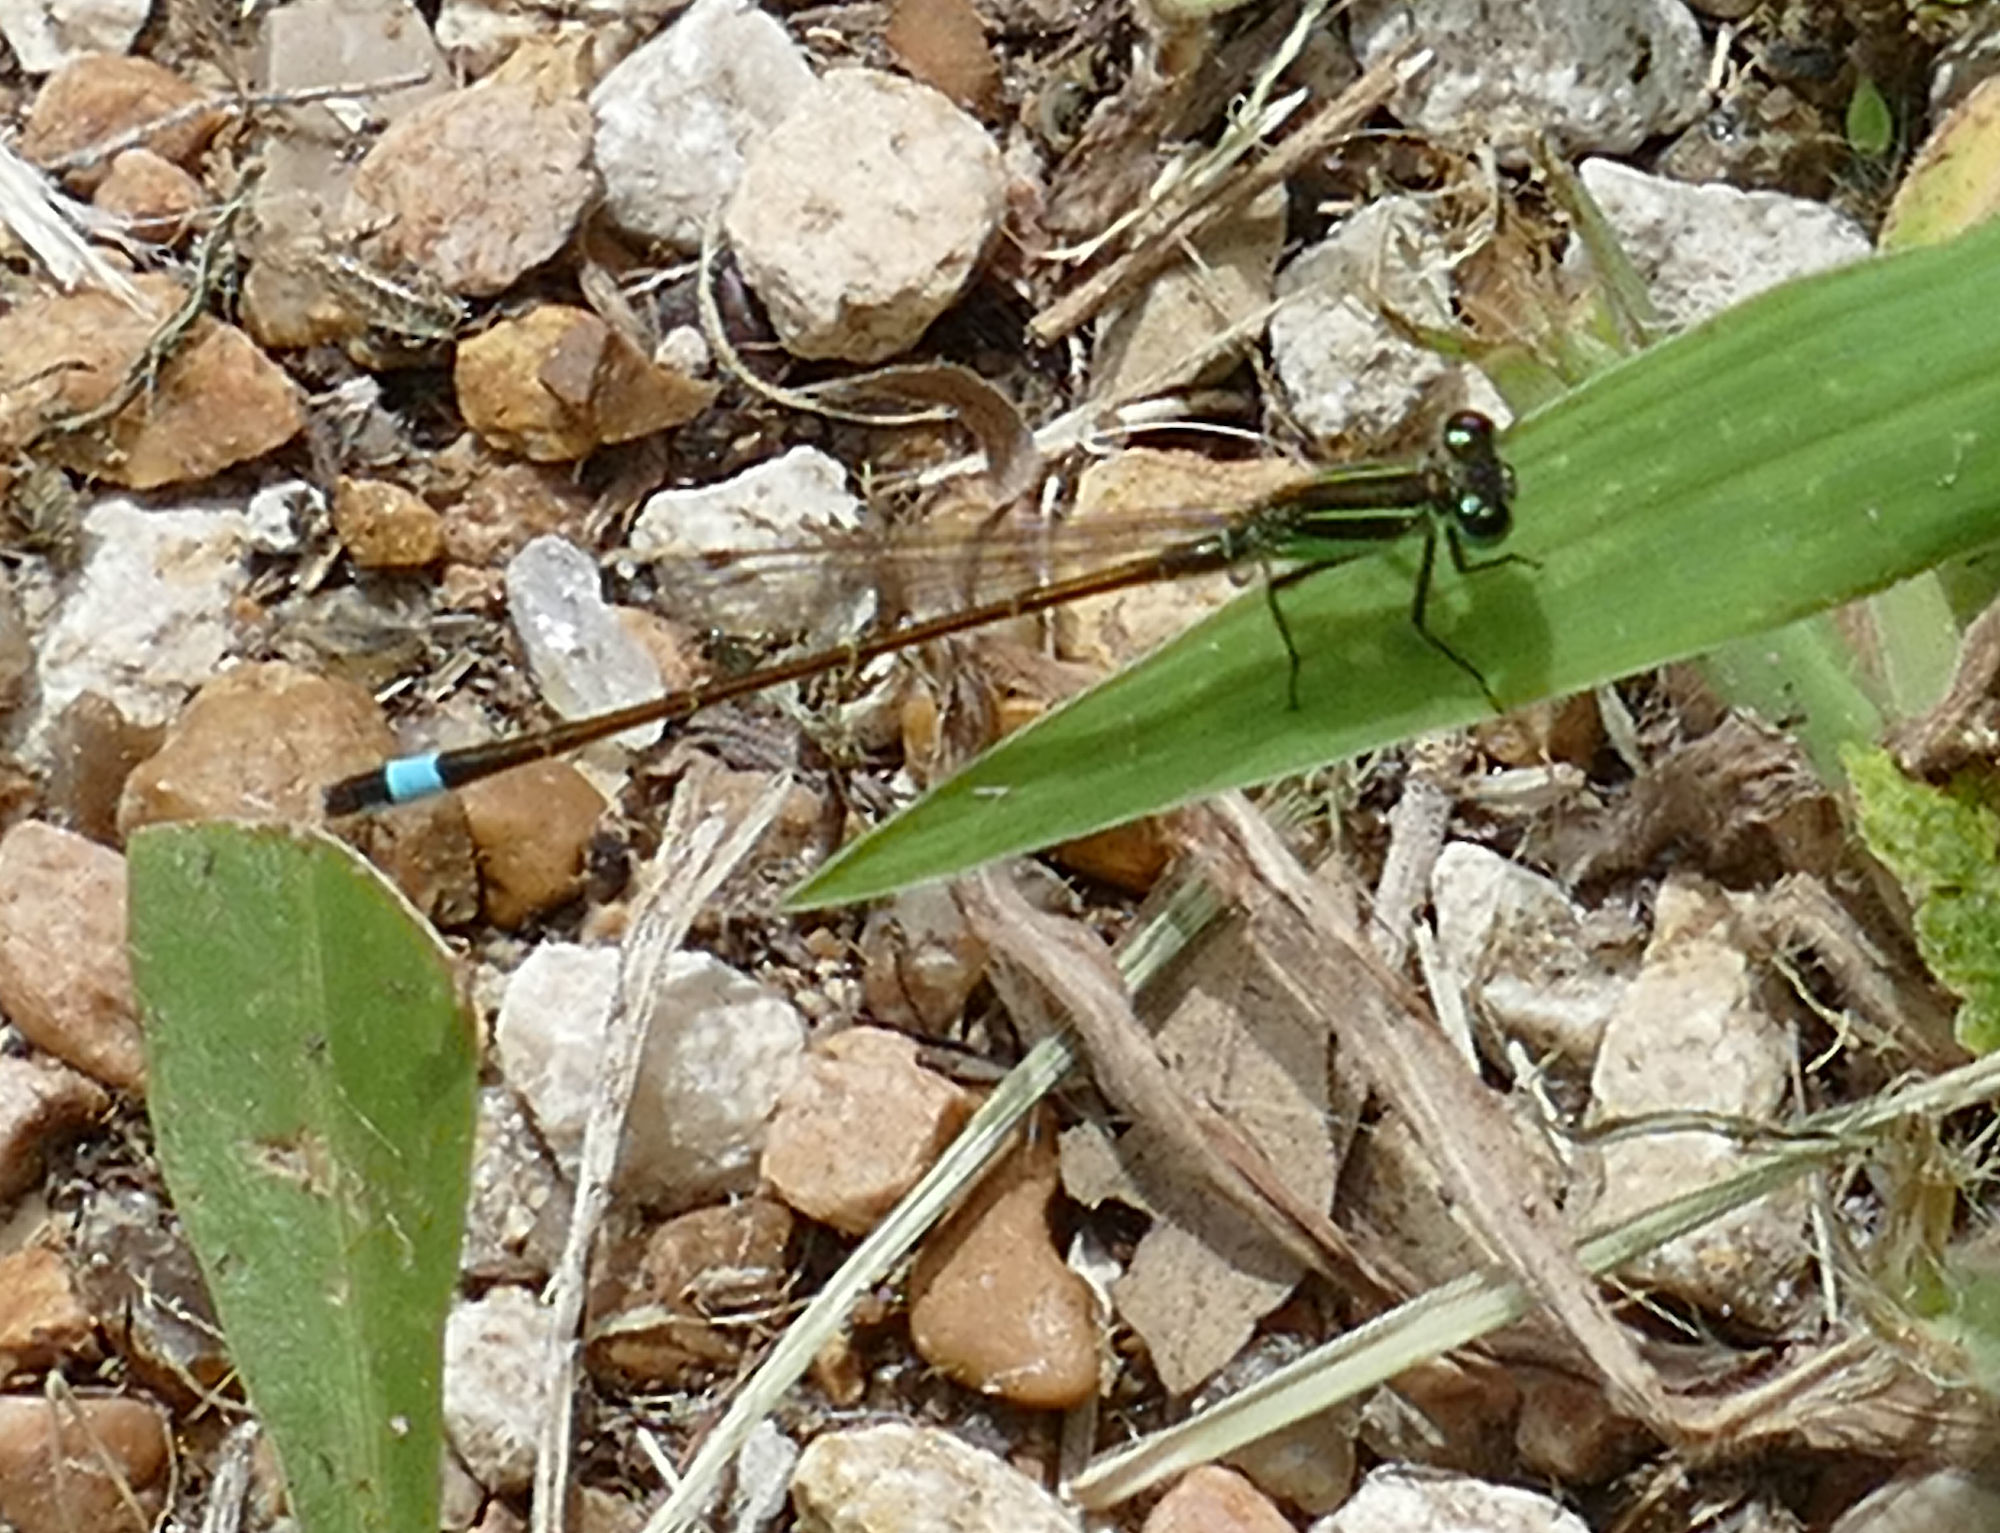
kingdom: Animalia
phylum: Arthropoda
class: Insecta
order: Odonata
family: Coenagrionidae
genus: Ischnura
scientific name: Ischnura ramburii
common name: Rambur's forktail
